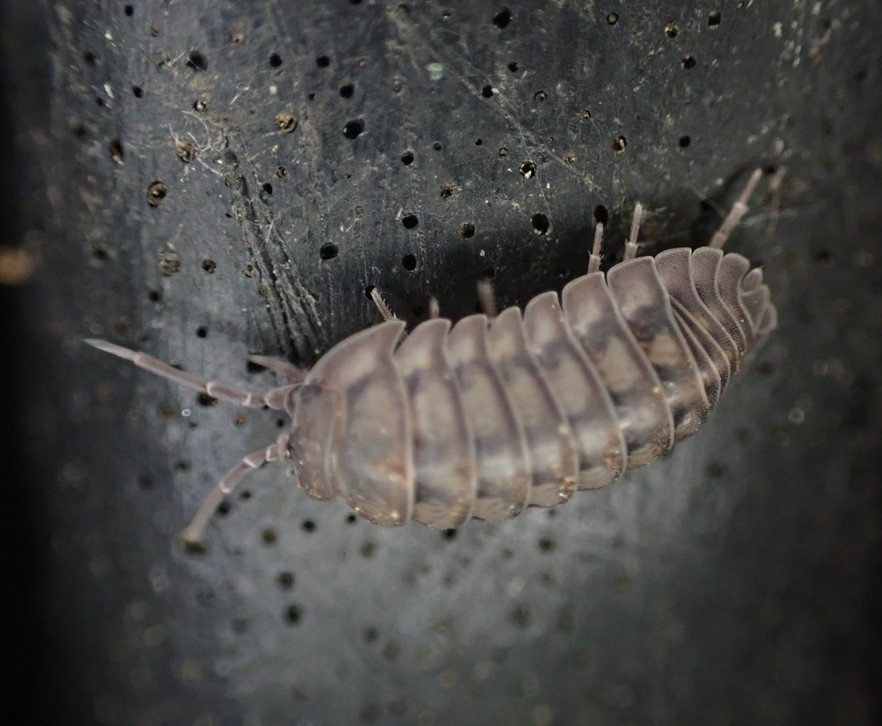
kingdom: Animalia
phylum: Arthropoda
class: Malacostraca
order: Isopoda
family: Armadillidiidae
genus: Armadillidium
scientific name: Armadillidium nasatum
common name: Isopod
